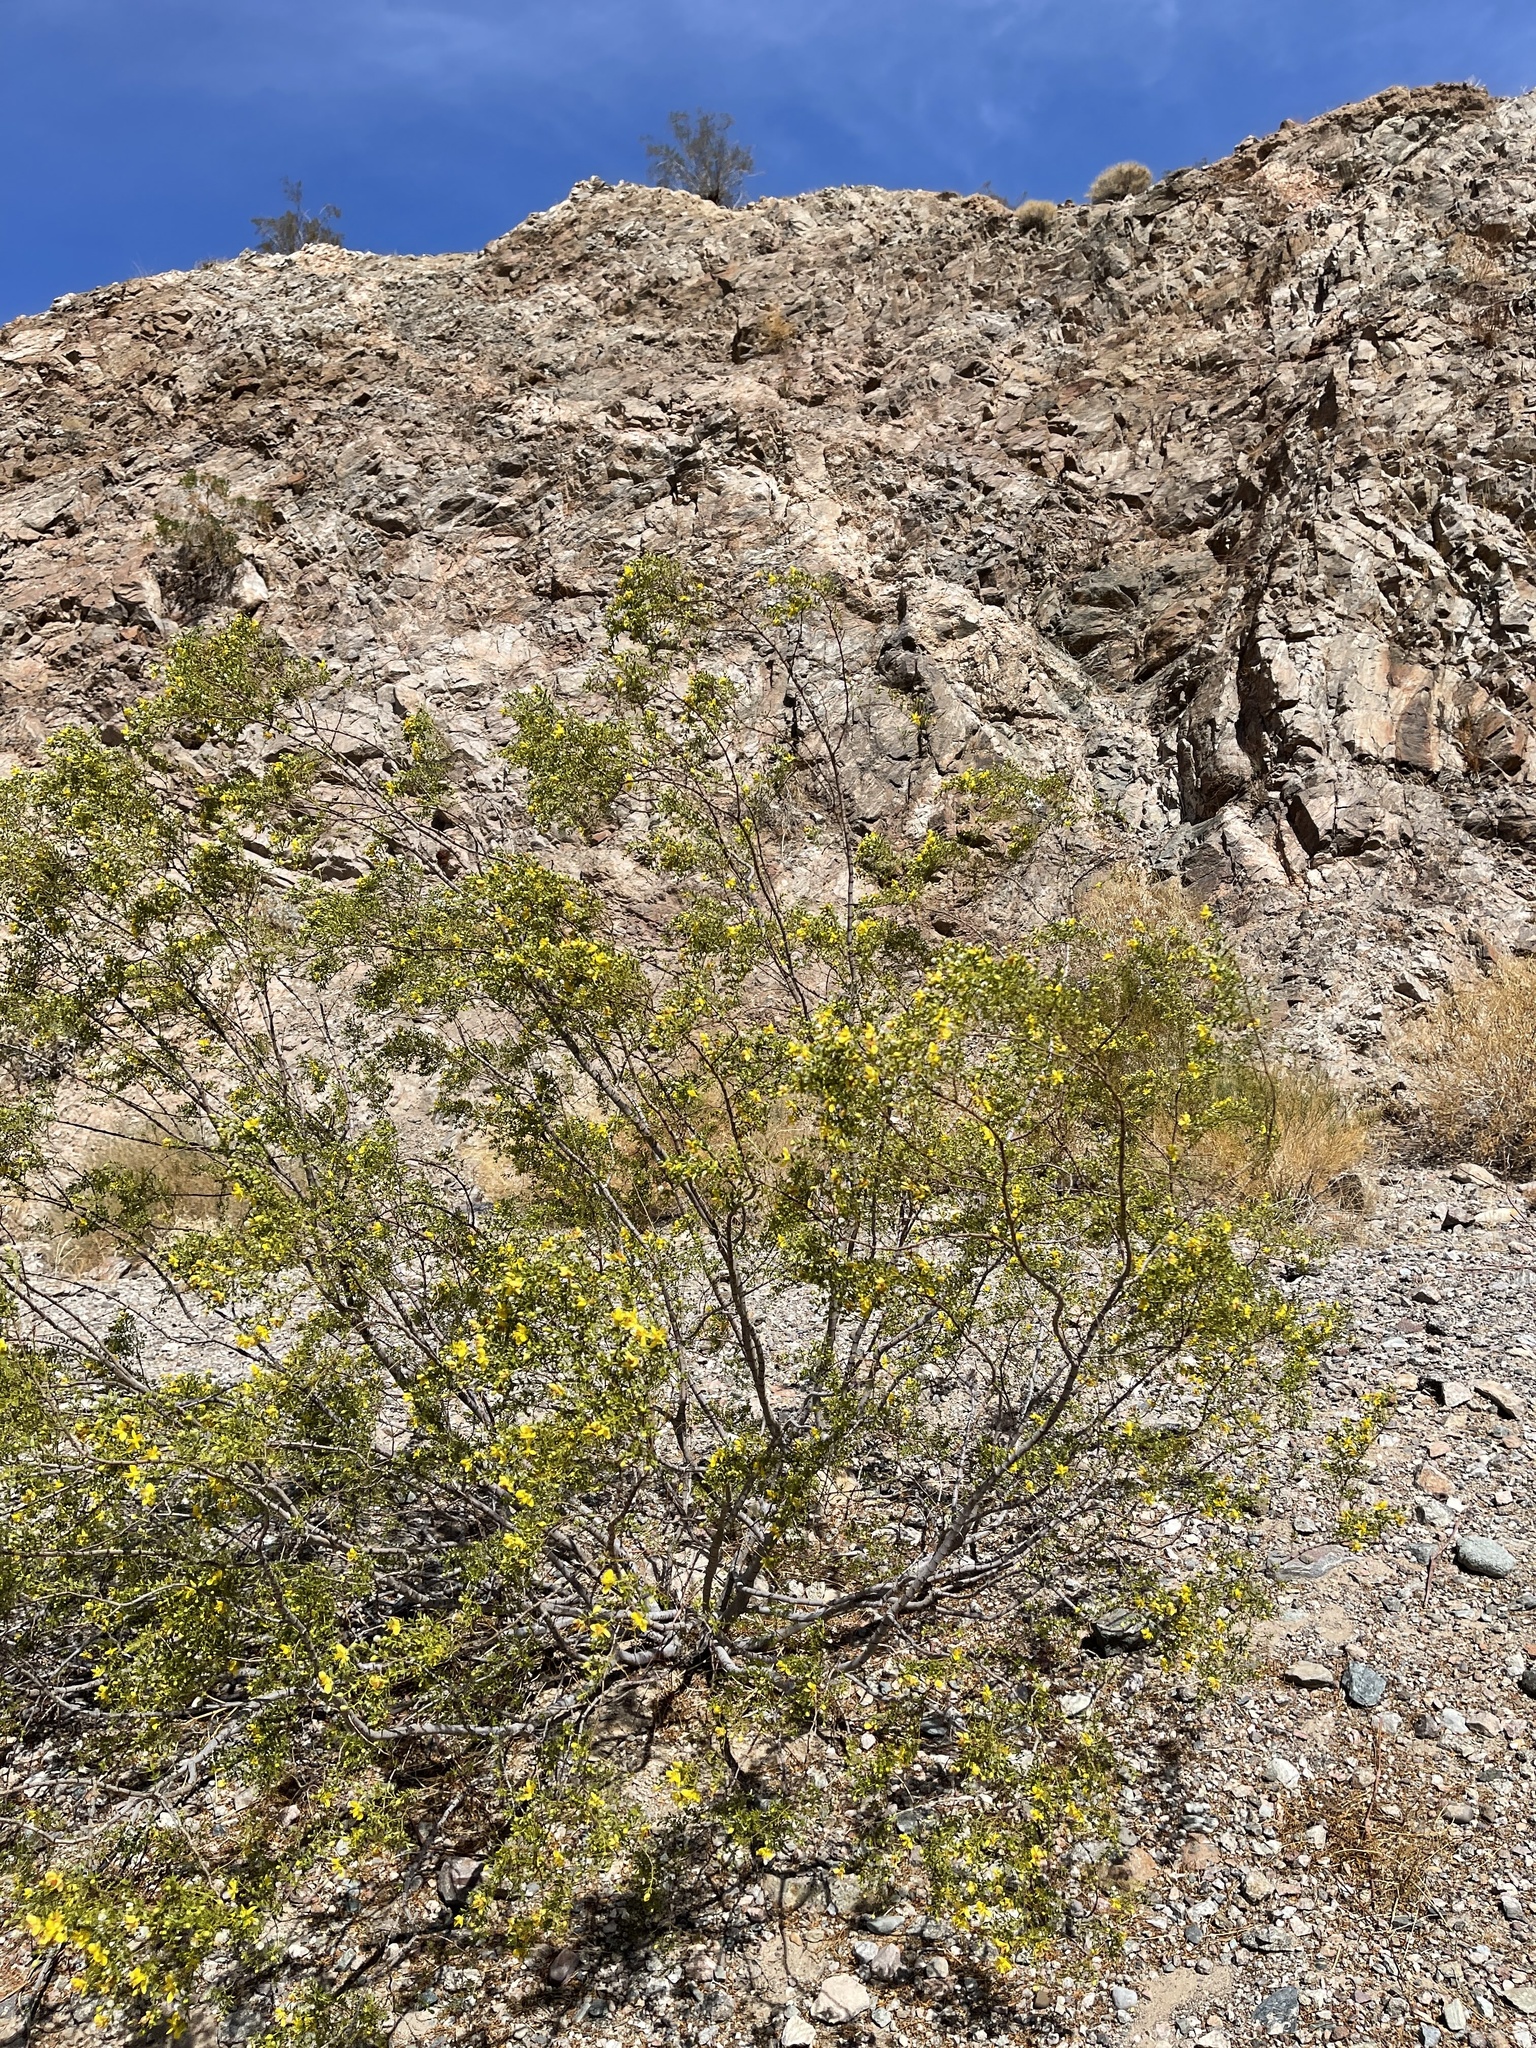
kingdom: Plantae
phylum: Tracheophyta
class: Magnoliopsida
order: Zygophyllales
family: Zygophyllaceae
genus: Larrea
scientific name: Larrea tridentata
